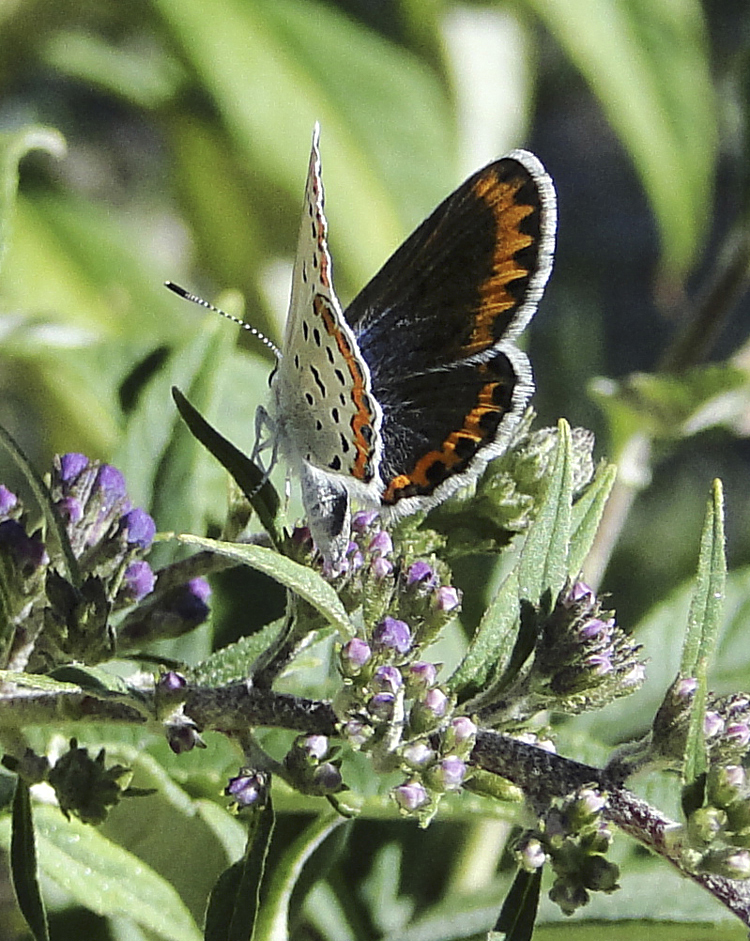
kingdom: Animalia
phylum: Arthropoda
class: Insecta
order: Lepidoptera
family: Lycaenidae
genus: Lycaeides
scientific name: Lycaeides melissa
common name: Melissa blue
